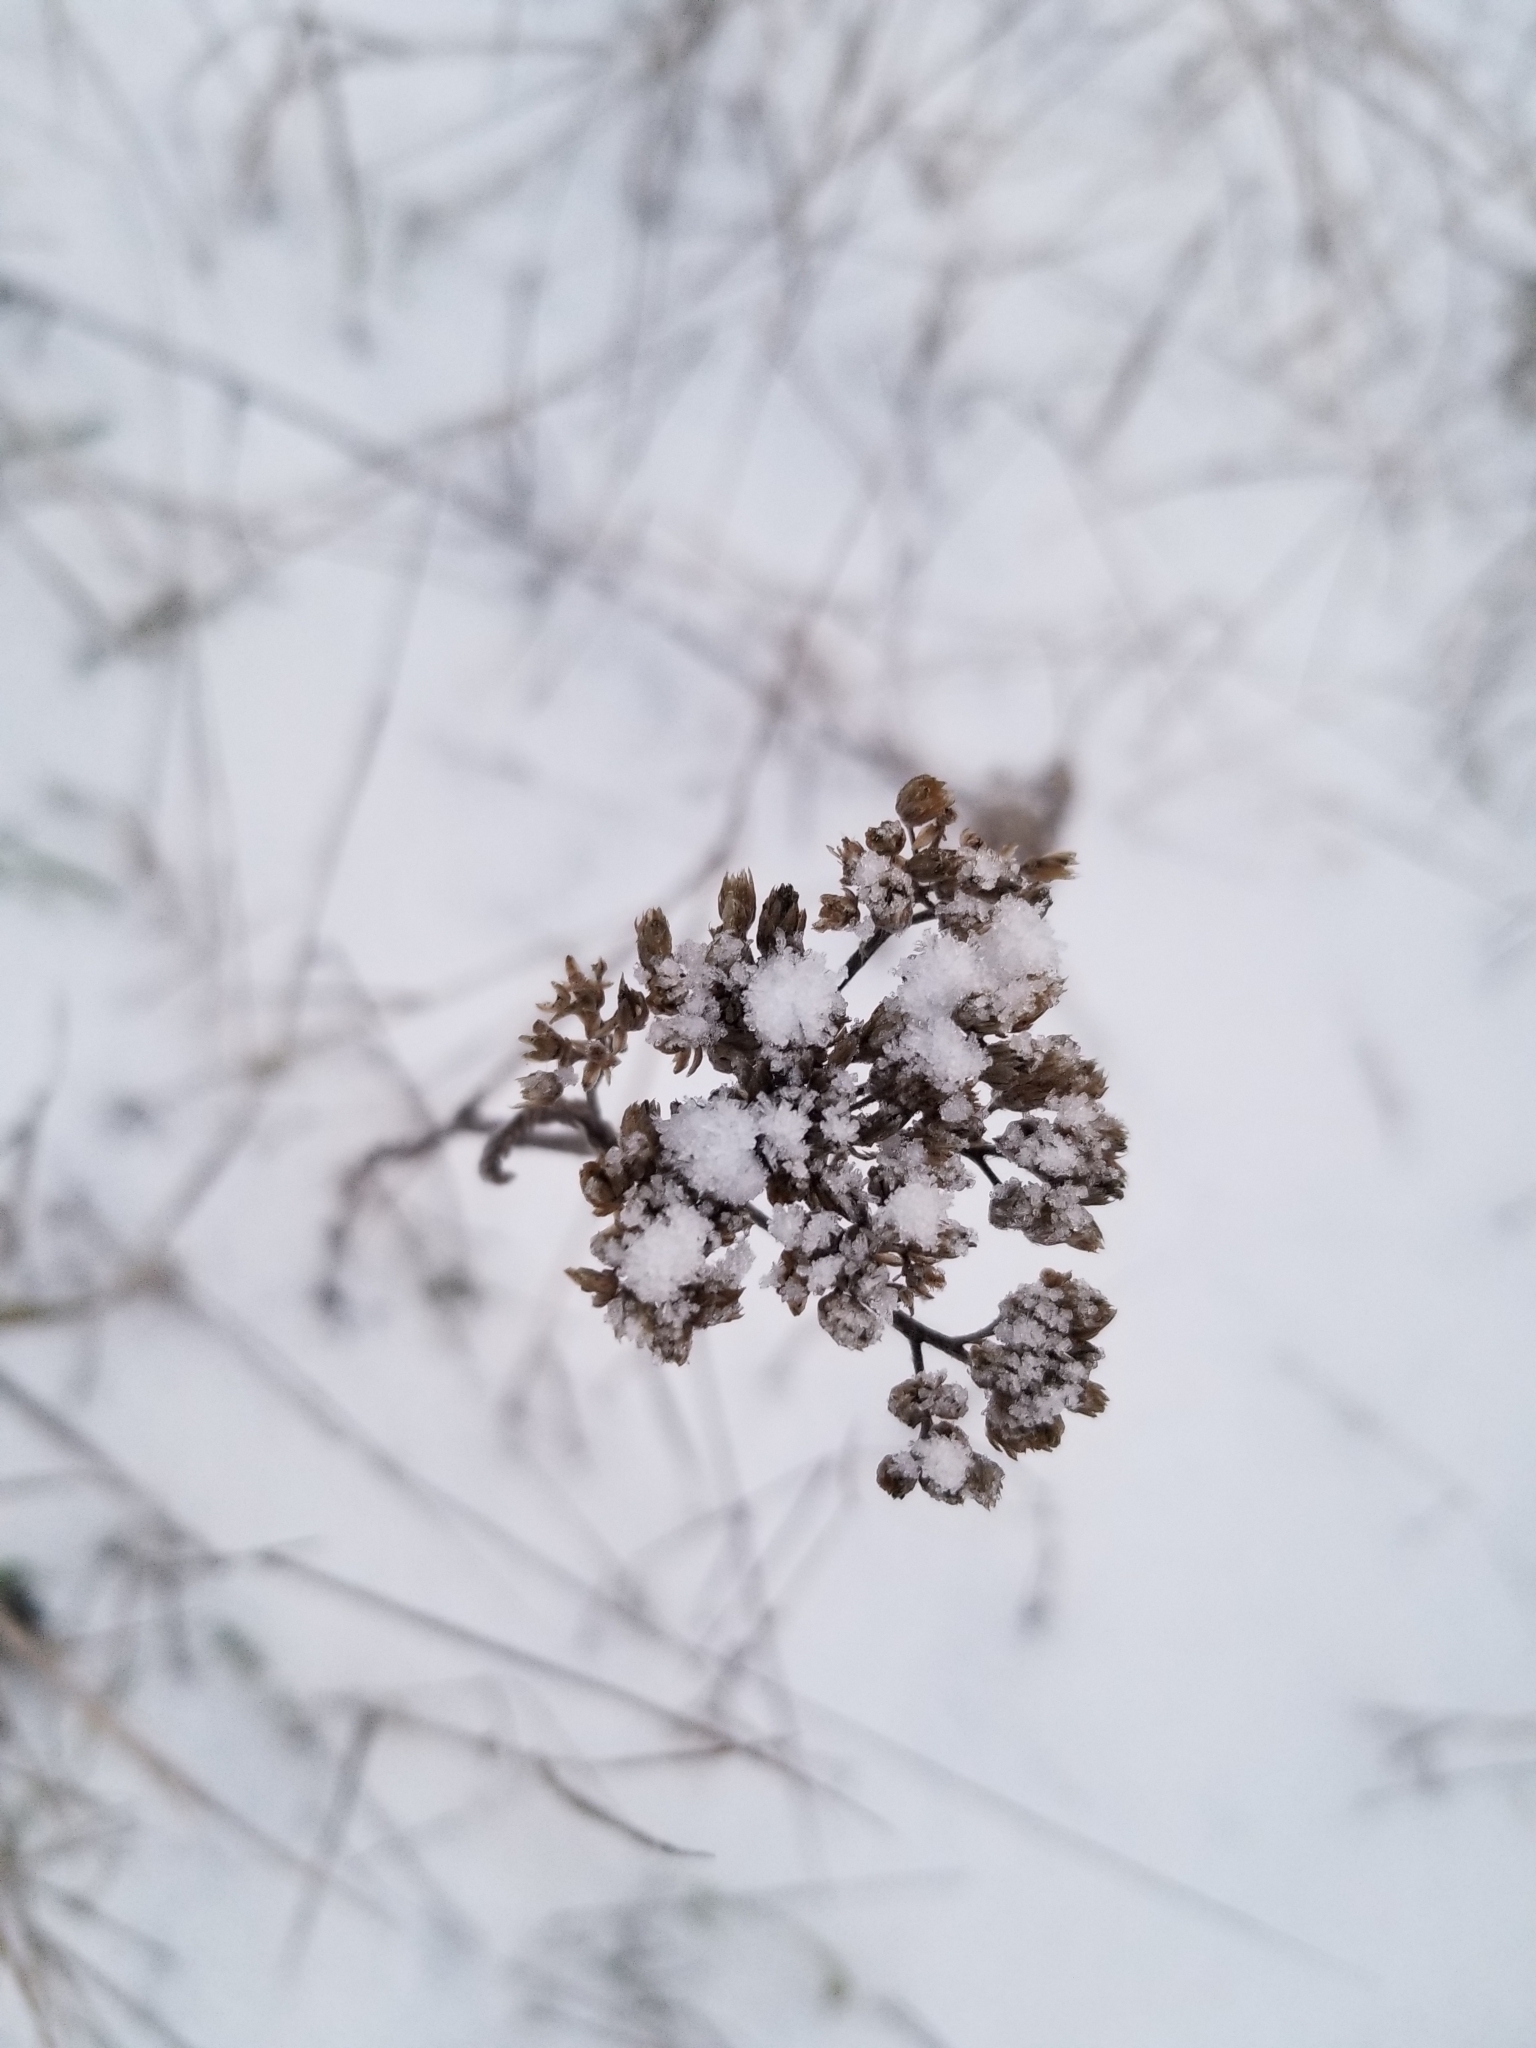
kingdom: Plantae
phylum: Tracheophyta
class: Magnoliopsida
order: Asterales
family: Asteraceae
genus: Achillea
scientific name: Achillea millefolium
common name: Yarrow
